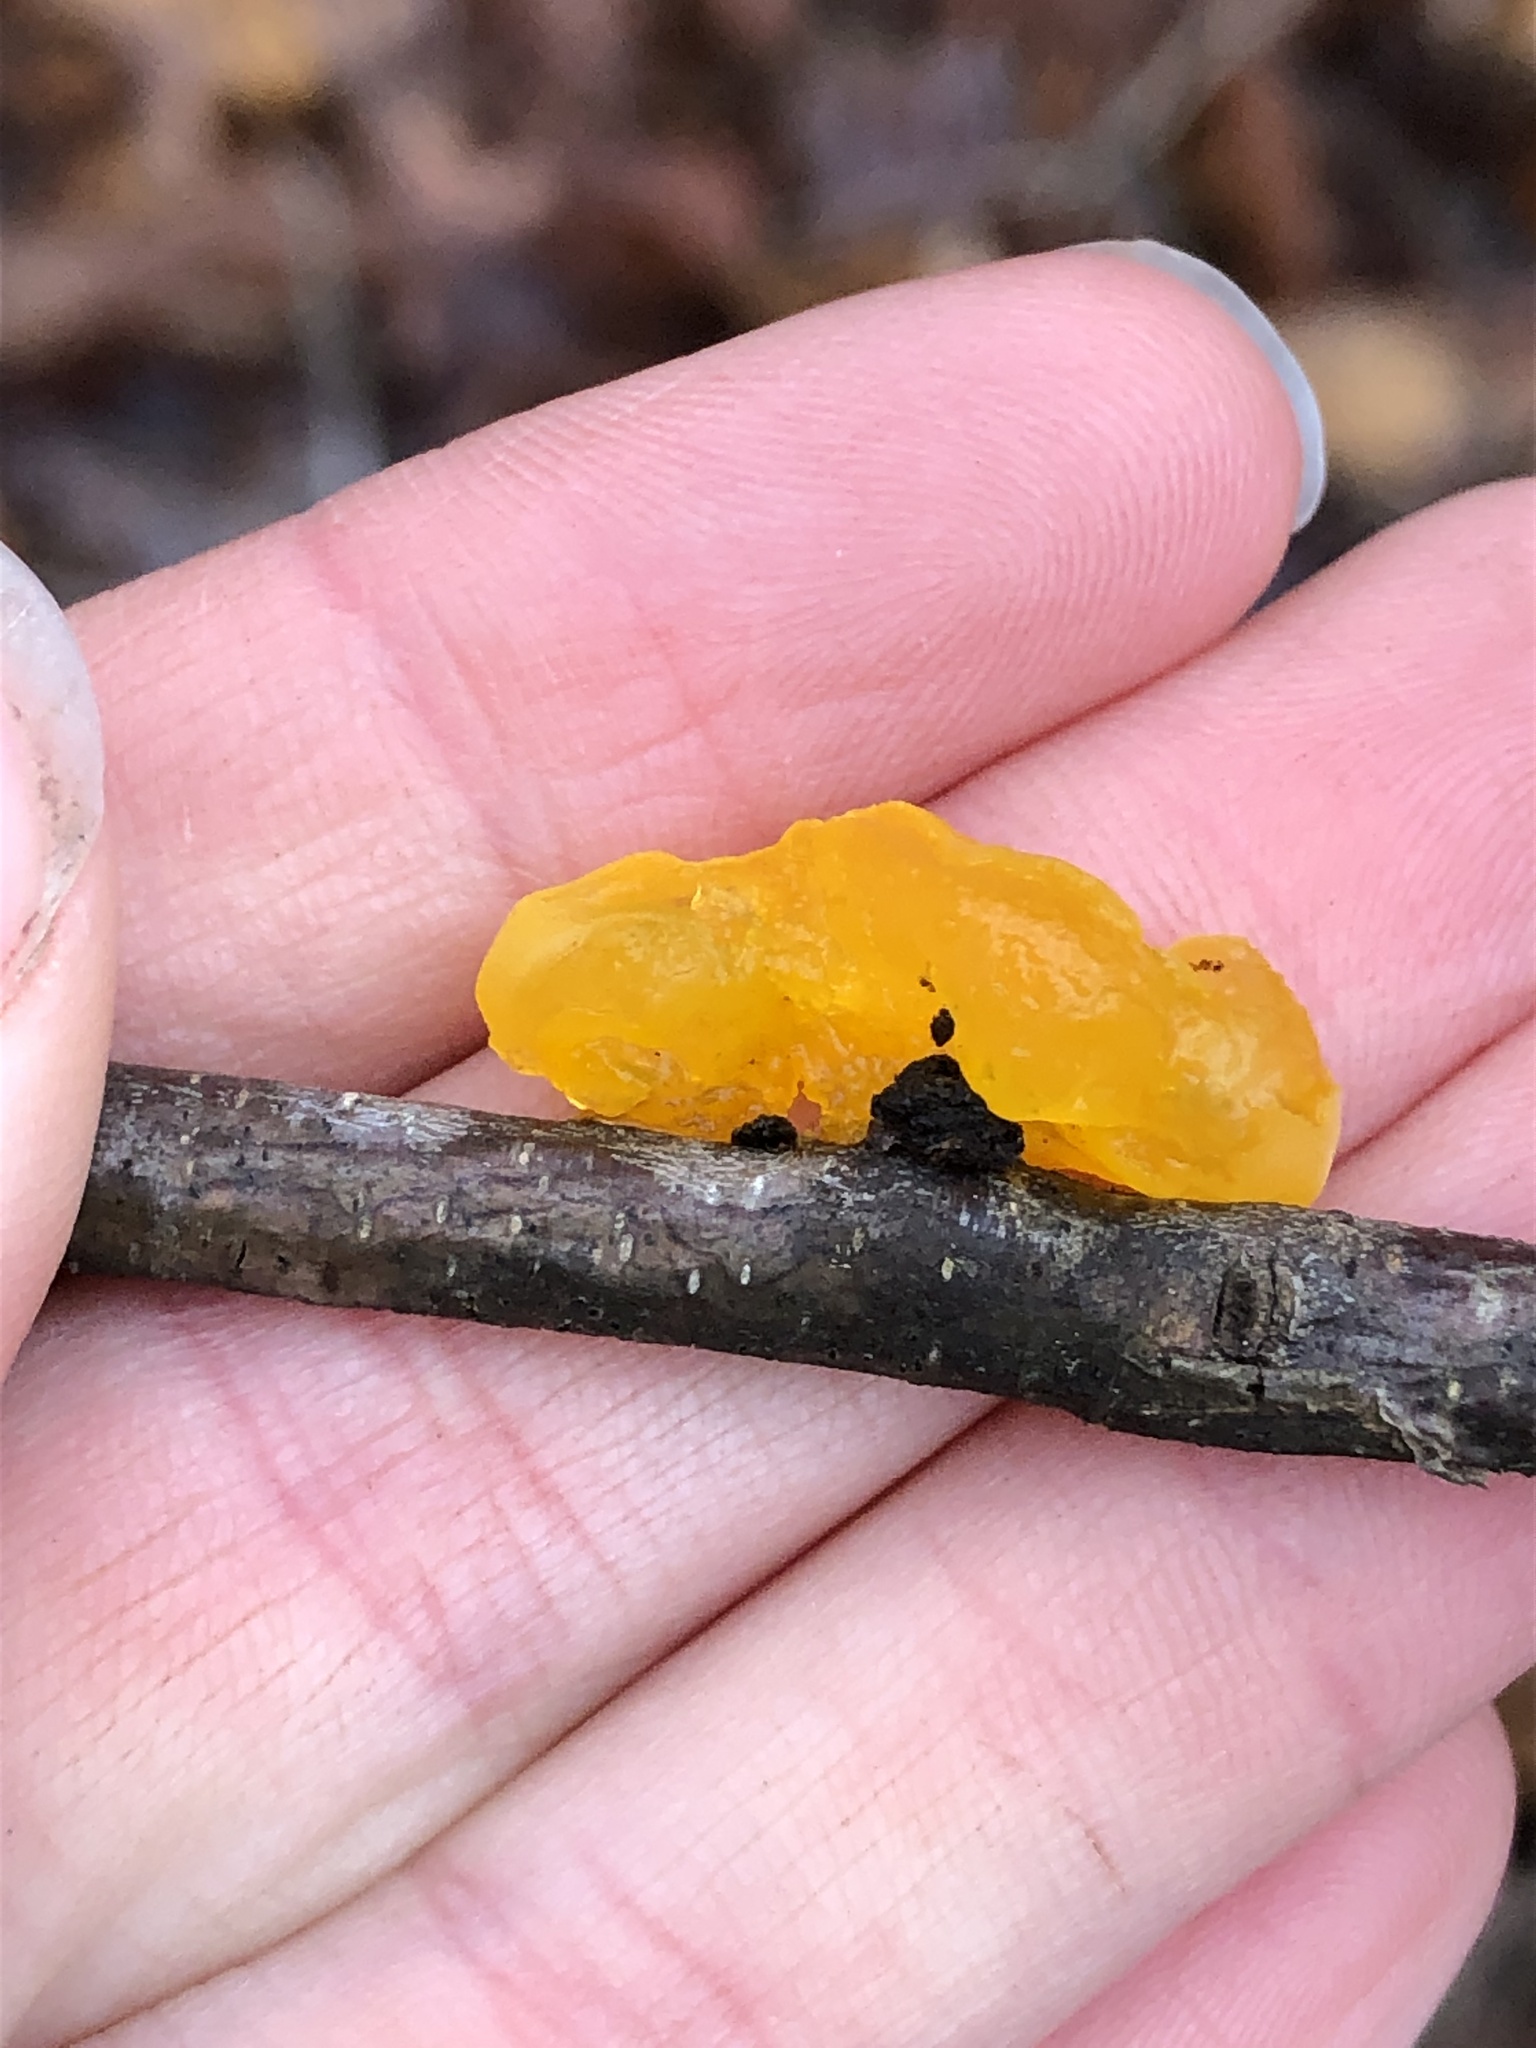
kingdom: Fungi
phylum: Basidiomycota
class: Tremellomycetes
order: Tremellales
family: Tremellaceae
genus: Tremella
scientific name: Tremella mesenterica
